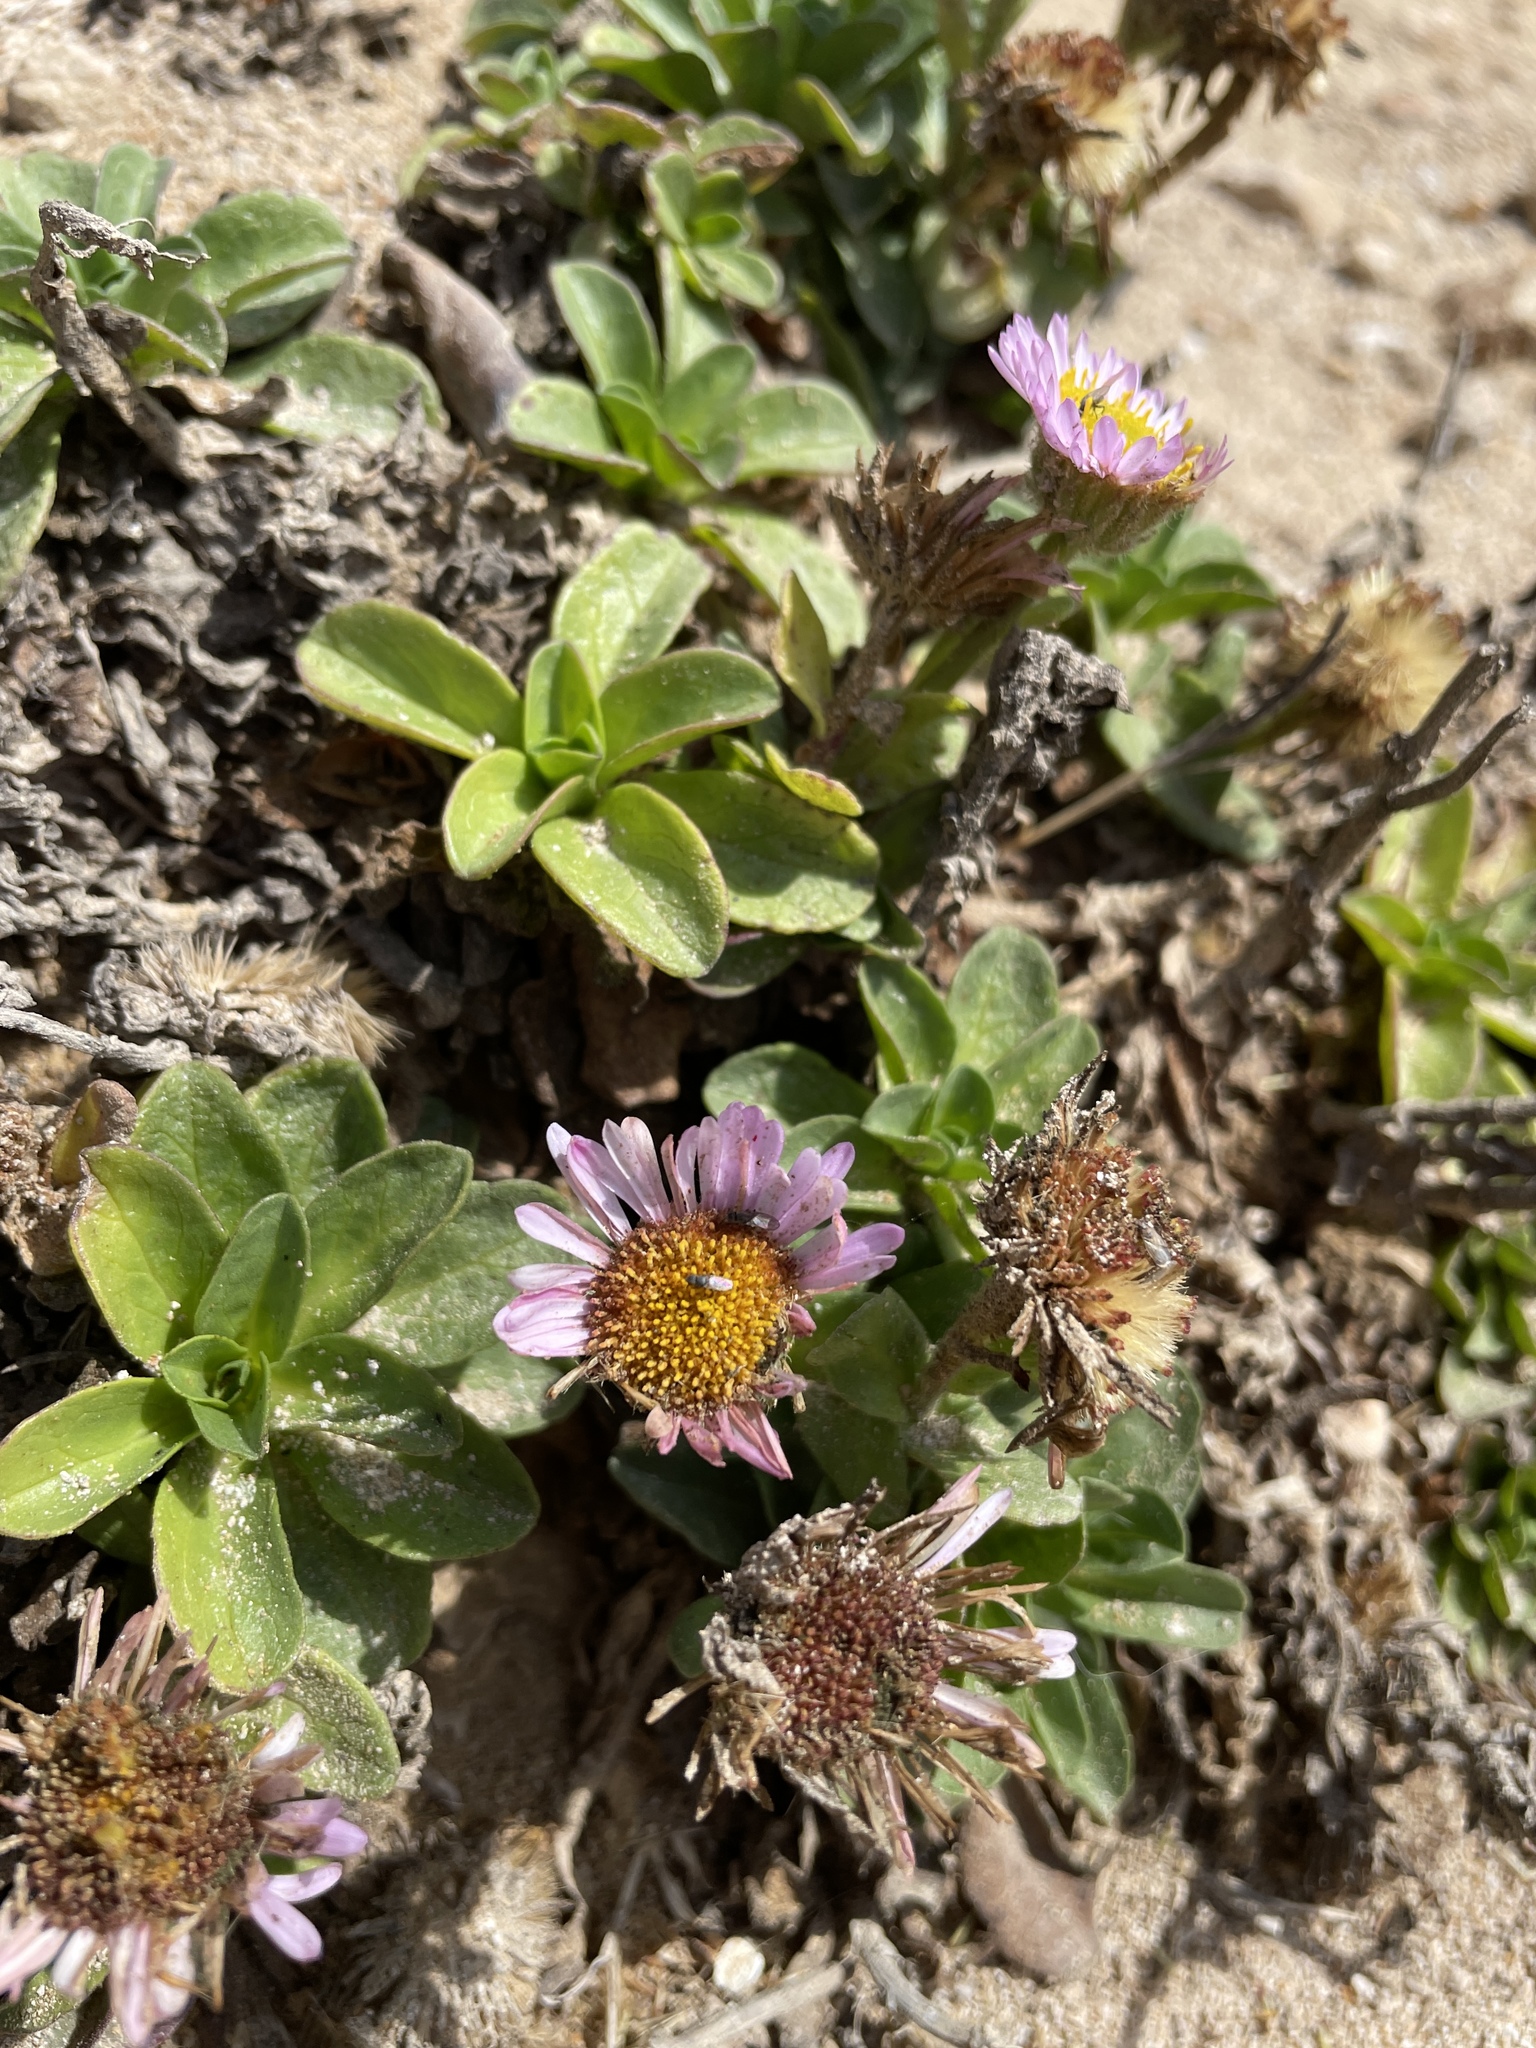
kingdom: Plantae
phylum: Tracheophyta
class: Magnoliopsida
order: Asterales
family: Asteraceae
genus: Erigeron
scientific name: Erigeron glaucus
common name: Seaside daisy
